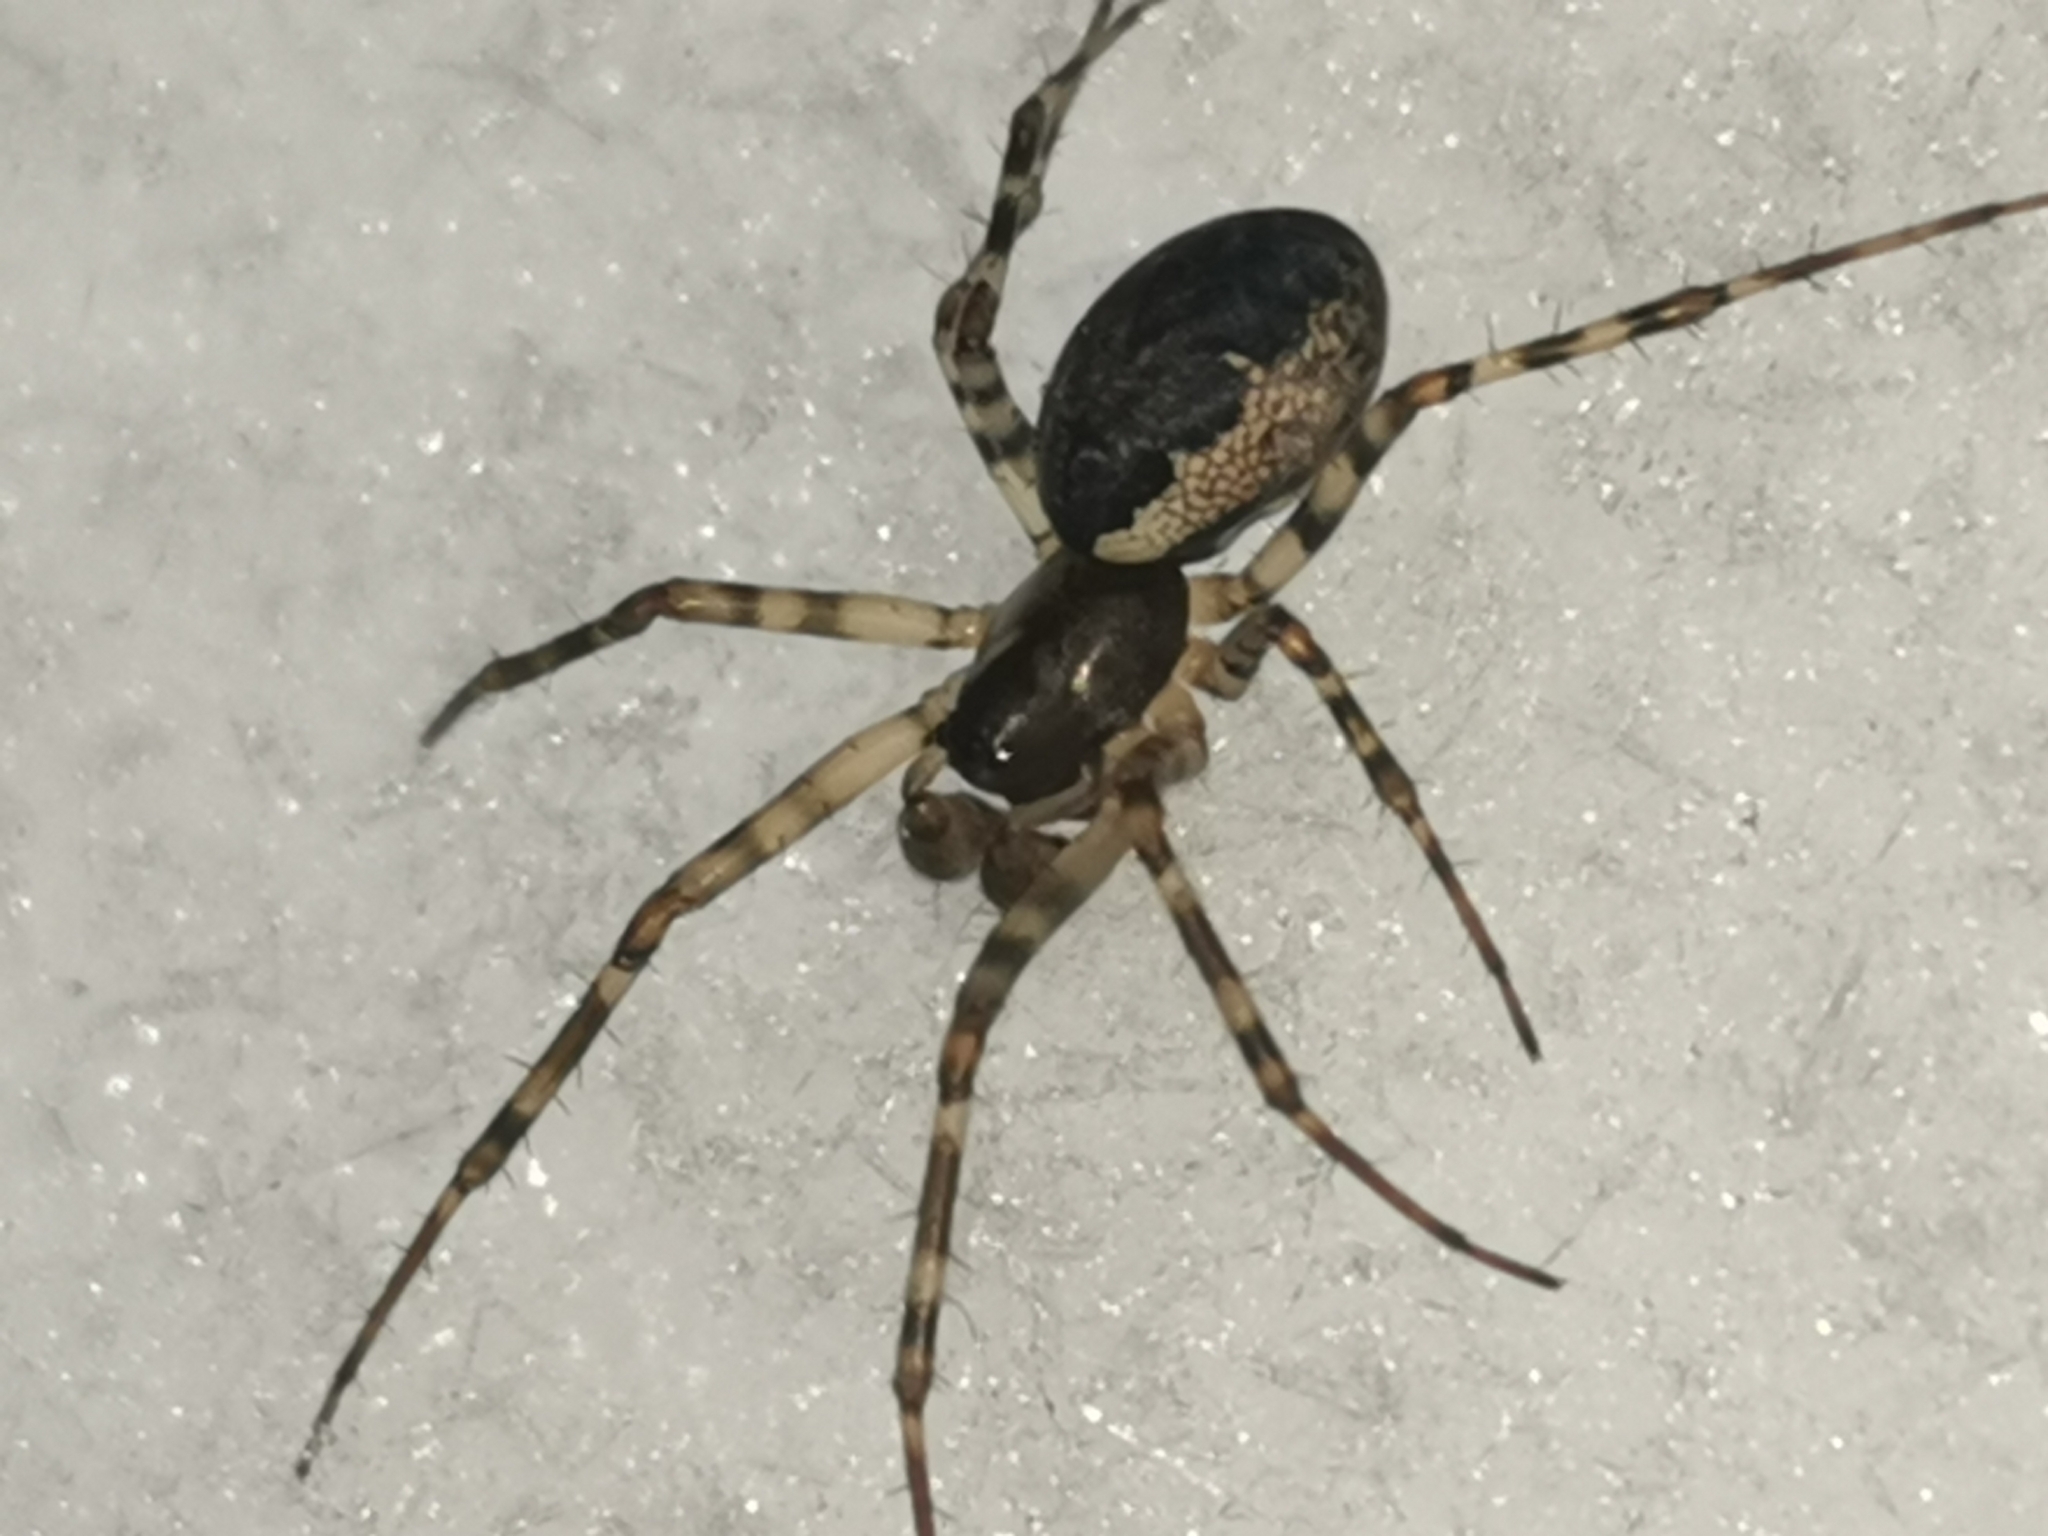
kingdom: Animalia
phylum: Arthropoda
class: Arachnida
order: Araneae
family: Linyphiidae
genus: Neriene
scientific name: Neriene montana
